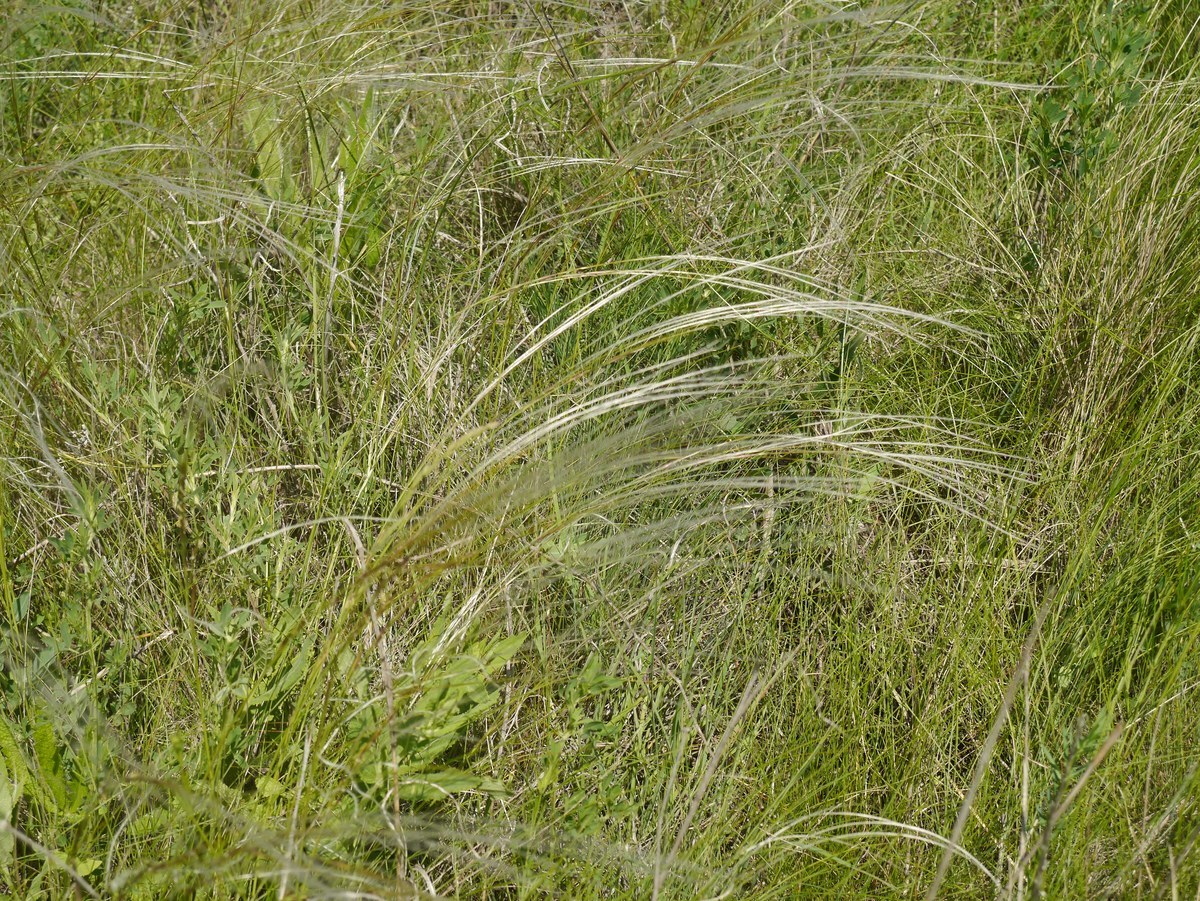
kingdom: Plantae
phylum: Tracheophyta
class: Liliopsida
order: Poales
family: Poaceae
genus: Stipa
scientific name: Stipa lessingiana
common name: Needle grass
